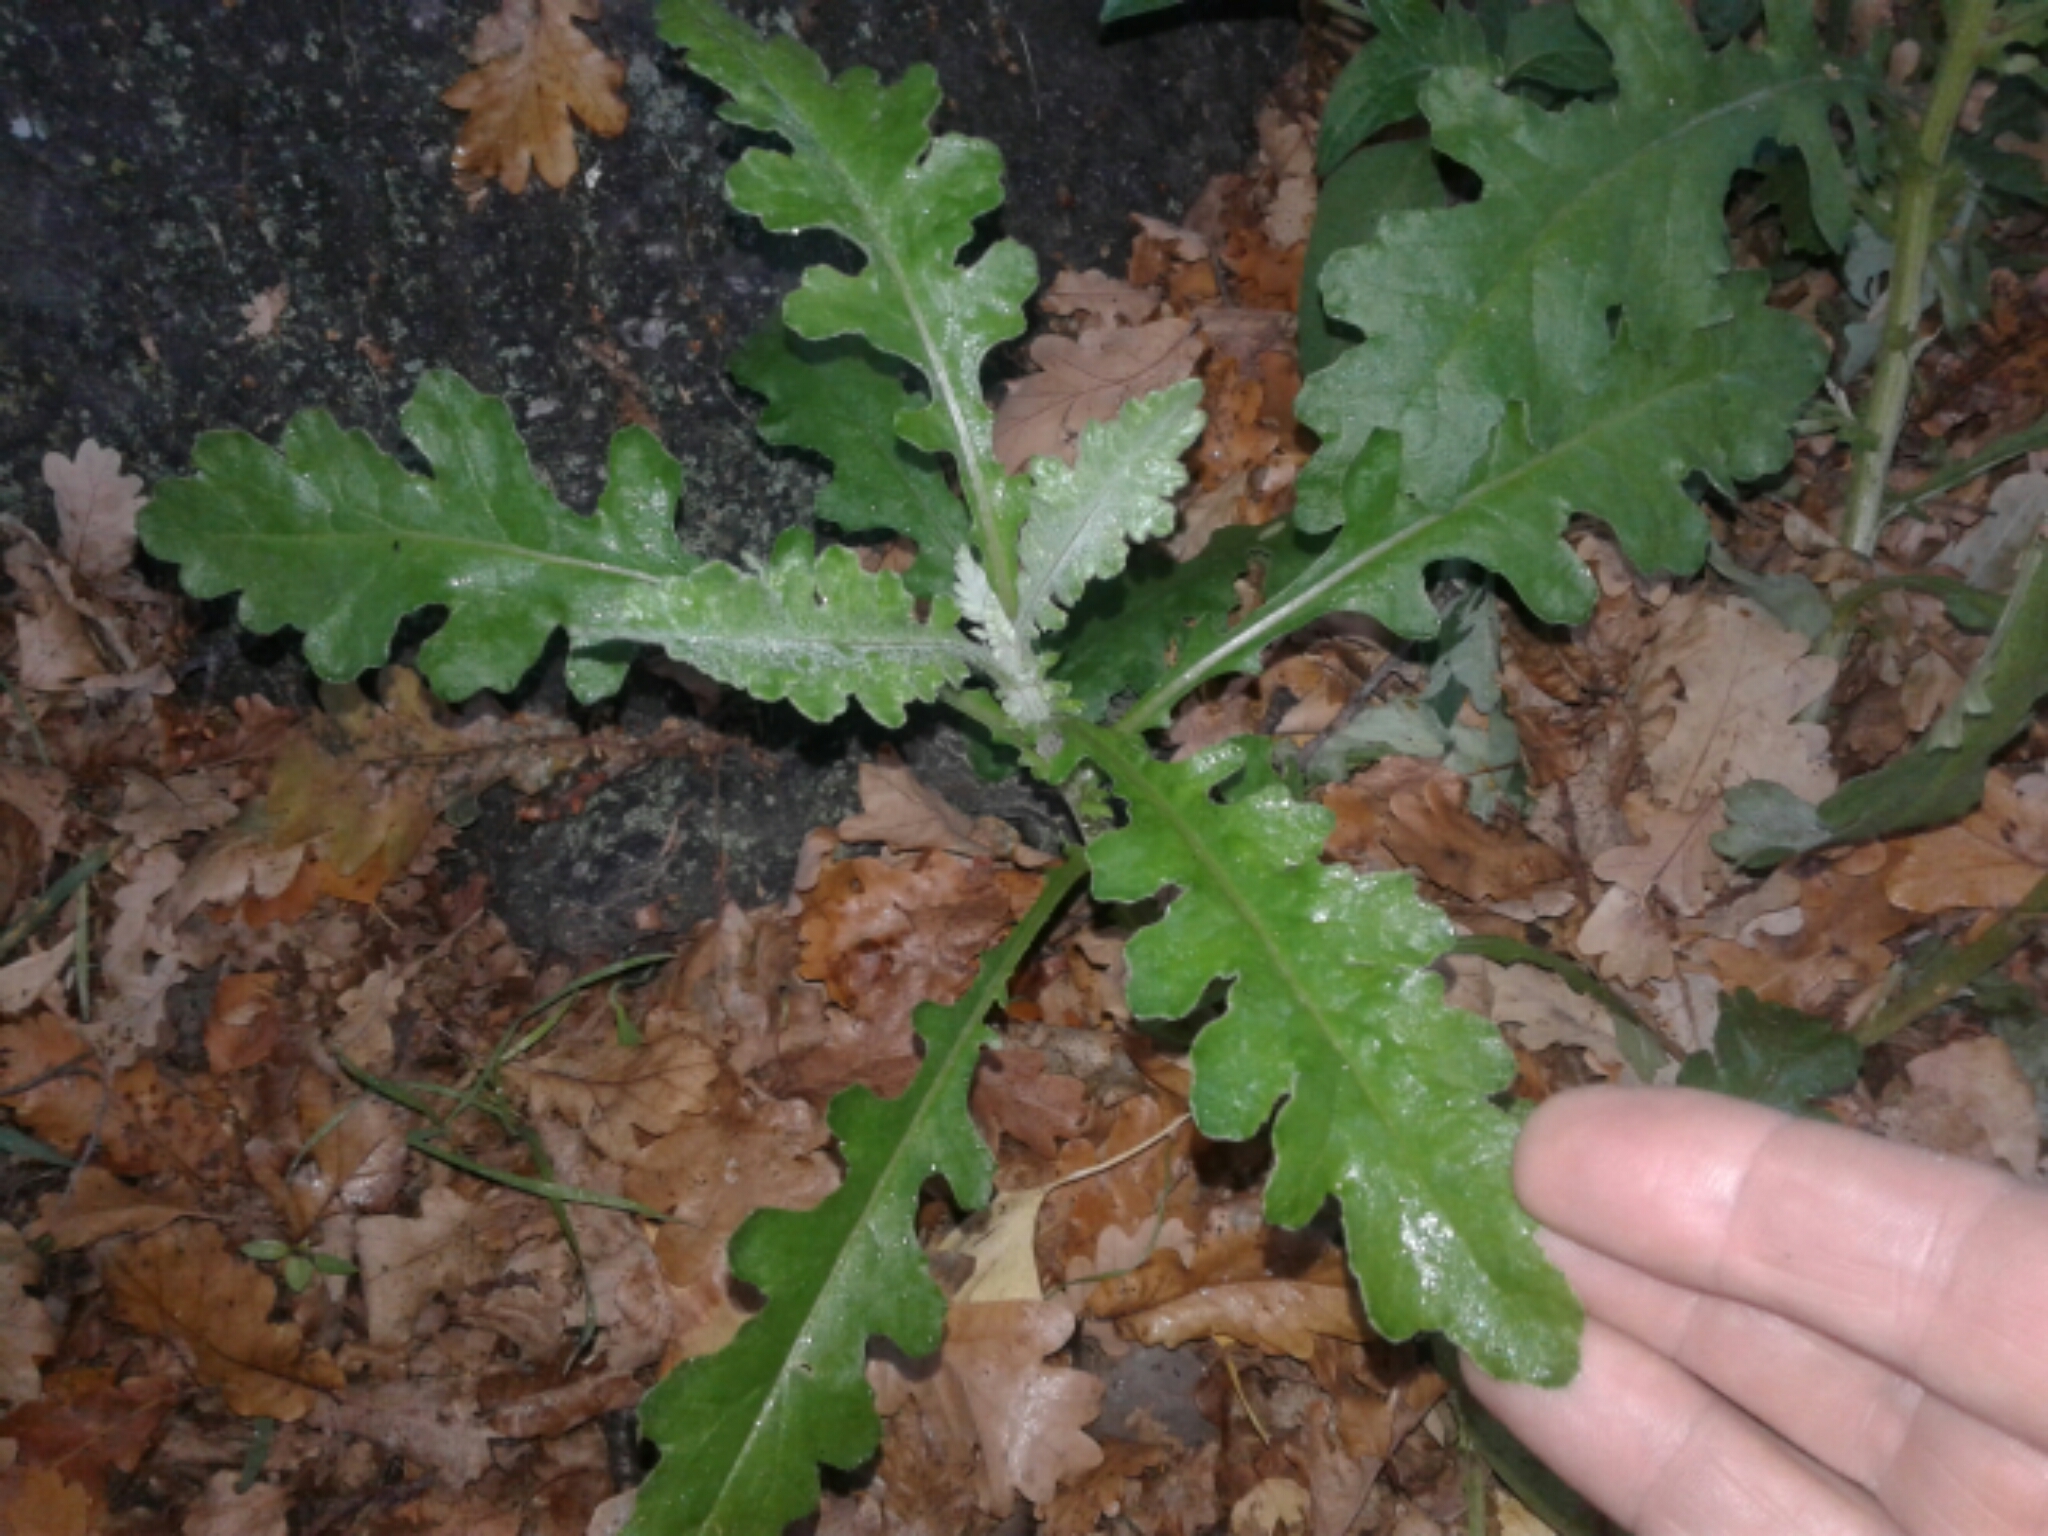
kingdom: Plantae
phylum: Tracheophyta
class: Magnoliopsida
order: Asterales
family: Asteraceae
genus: Senecio
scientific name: Senecio glomeratus
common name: Cutleaf burnweed
